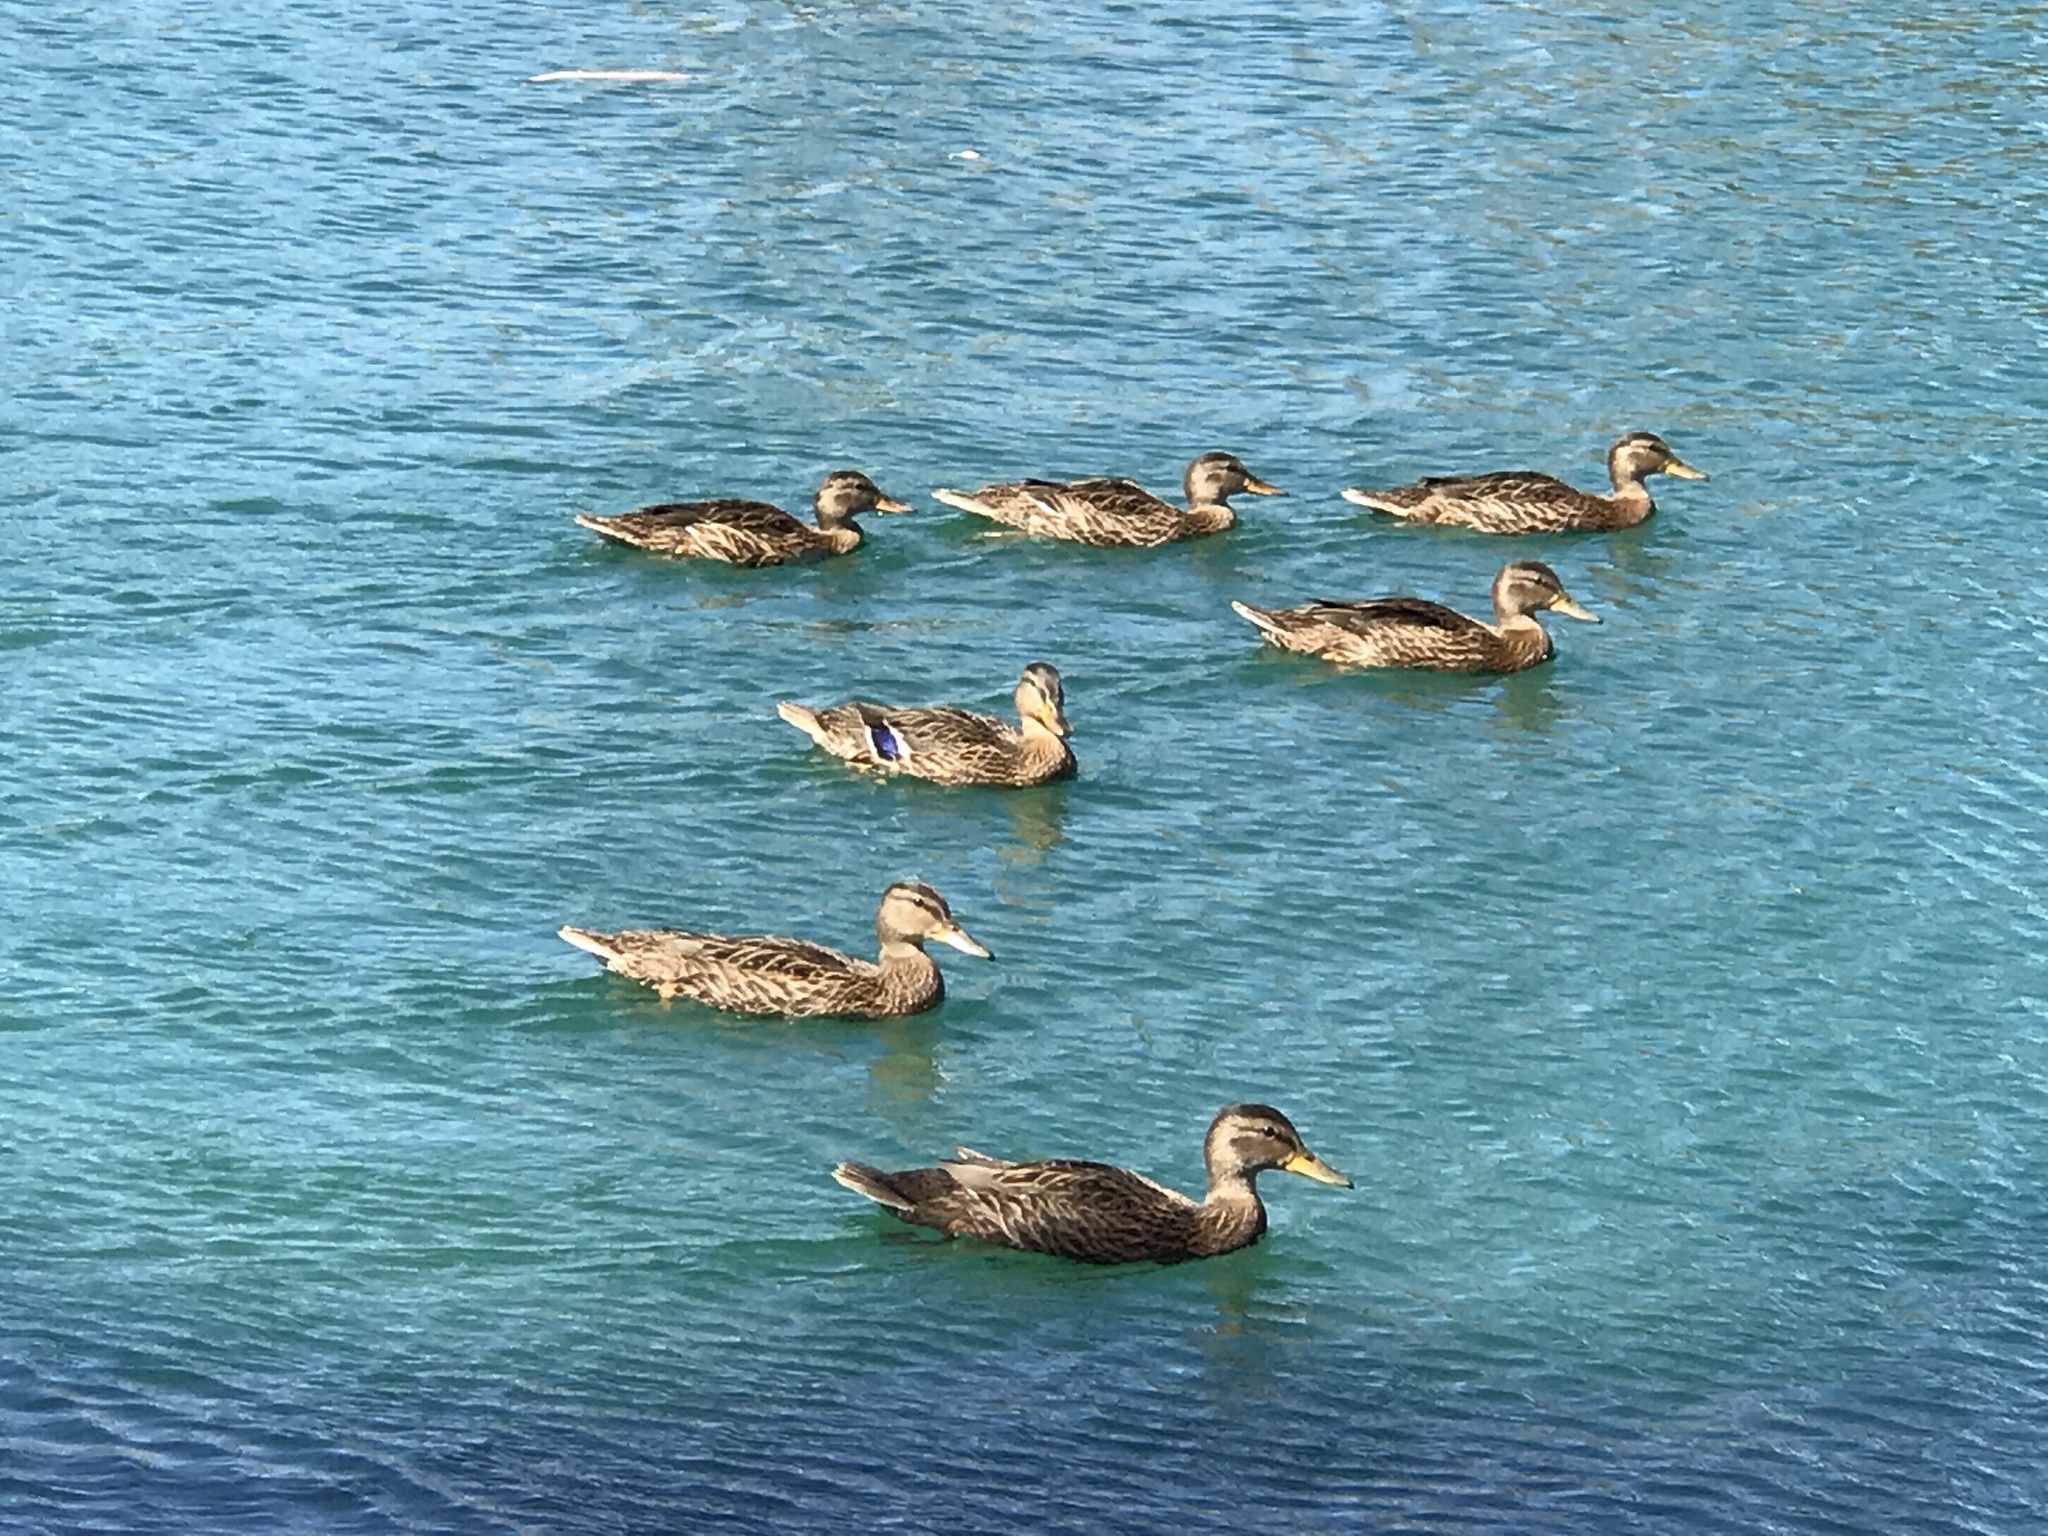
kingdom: Animalia
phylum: Chordata
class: Aves
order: Anseriformes
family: Anatidae
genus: Anas
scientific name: Anas platyrhynchos
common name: Mallard
